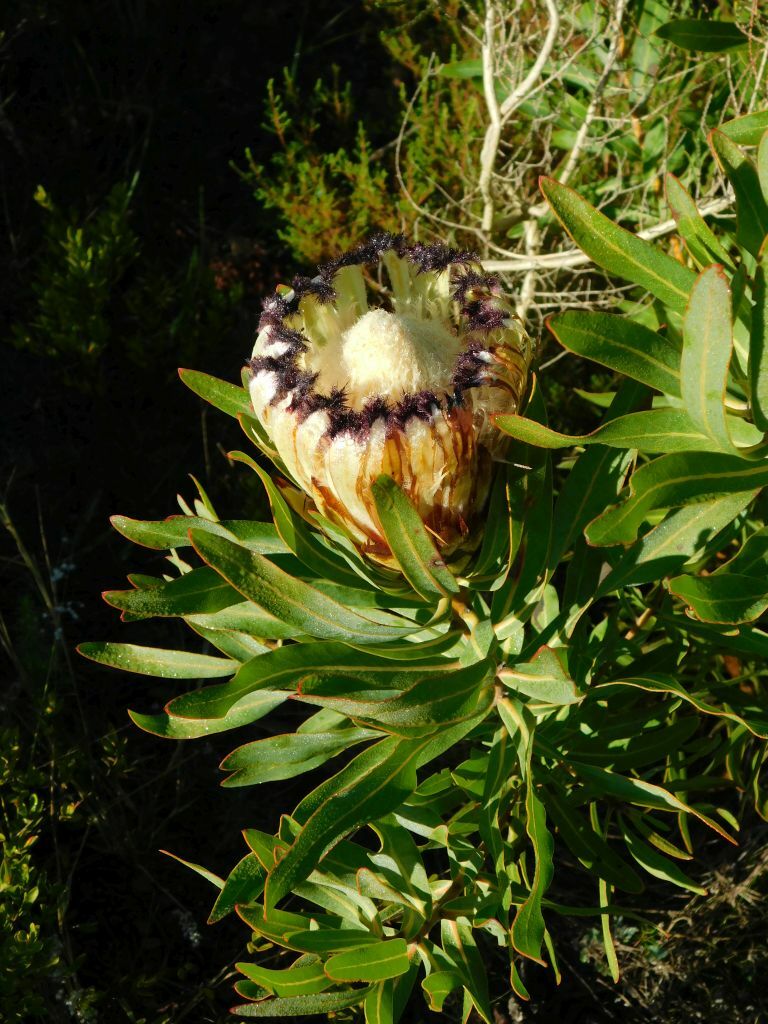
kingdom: Plantae
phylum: Tracheophyta
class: Magnoliopsida
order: Proteales
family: Proteaceae
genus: Protea
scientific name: Protea neriifolia
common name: Blue sugarbush
